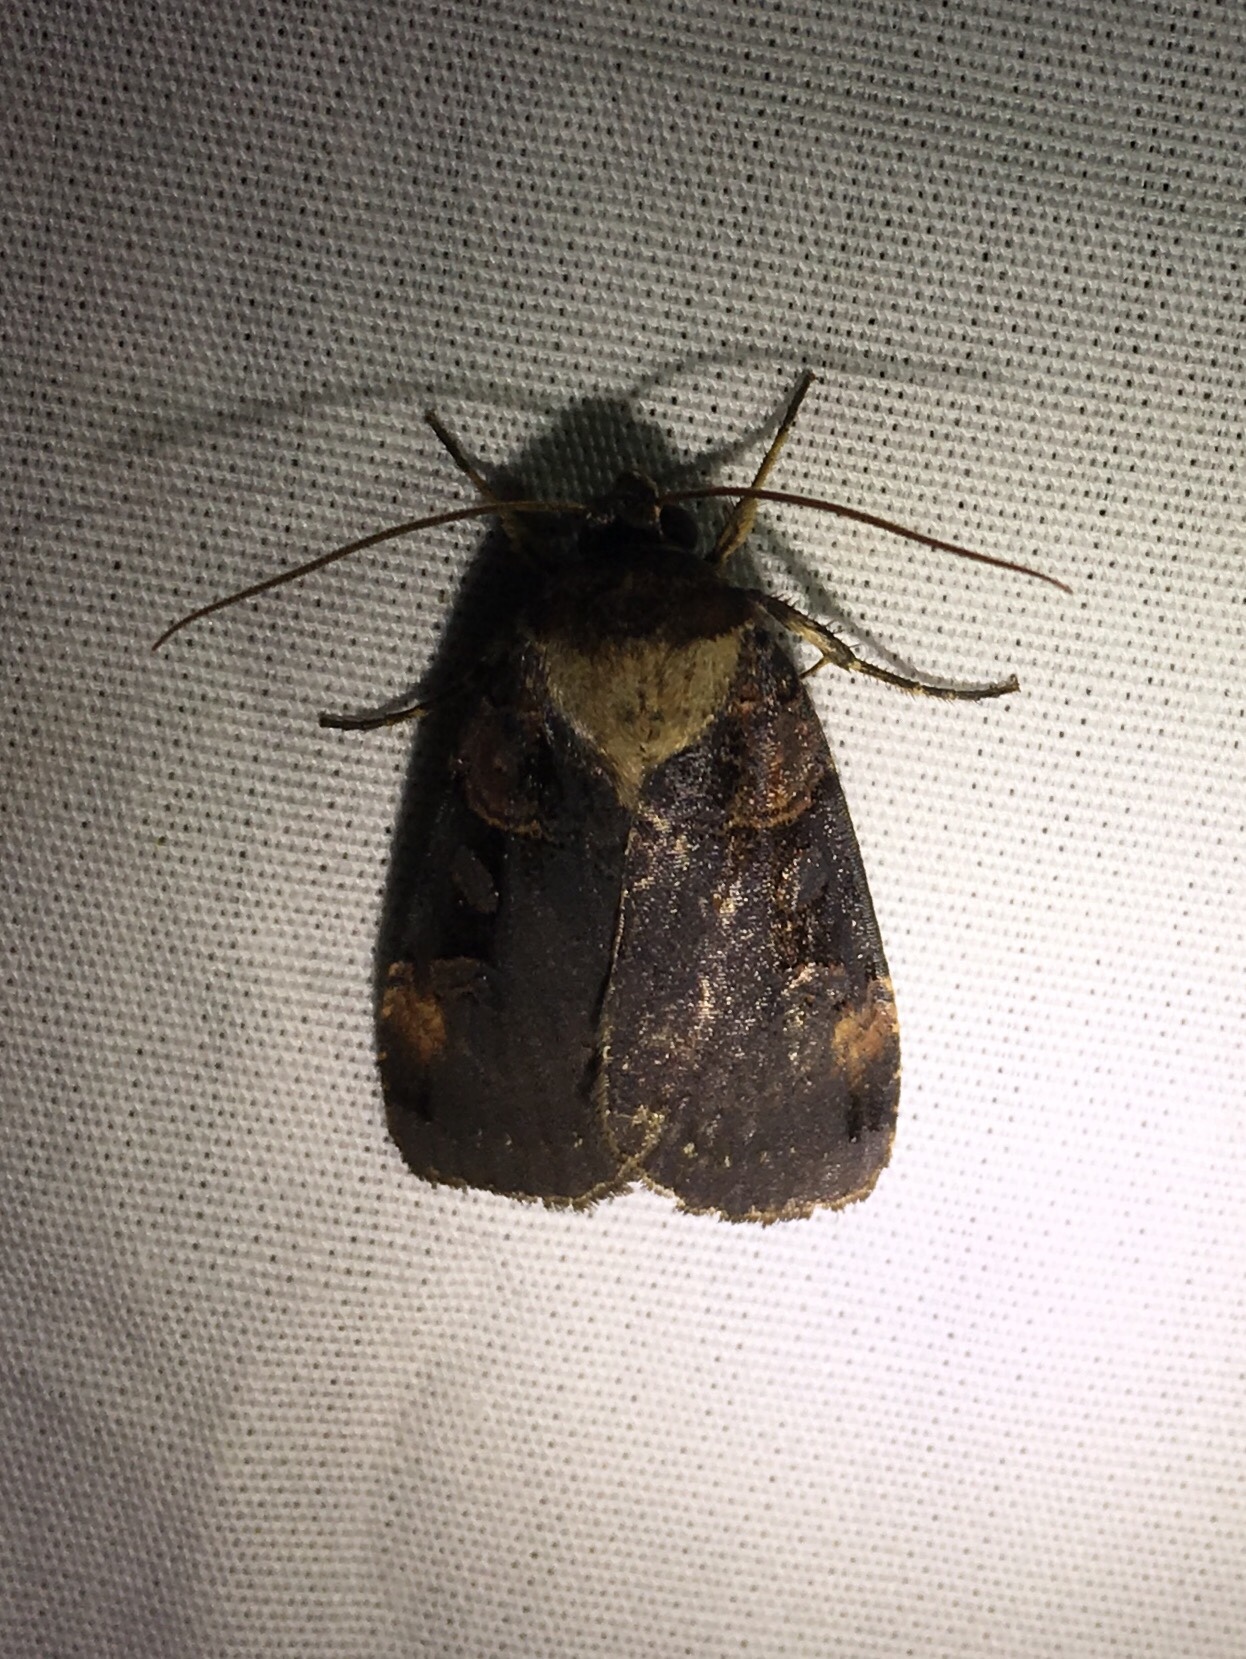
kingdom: Animalia
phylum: Arthropoda
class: Insecta
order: Lepidoptera
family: Noctuidae
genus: Pseudohermonassa
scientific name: Pseudohermonassa bicarnea
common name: Pink spotted dart
